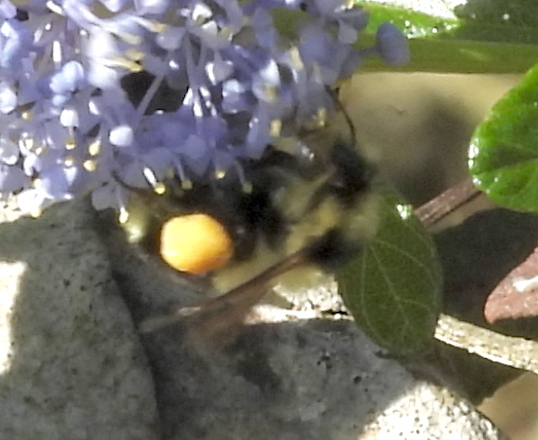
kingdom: Animalia
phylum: Arthropoda
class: Insecta
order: Hymenoptera
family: Apidae
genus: Bombus
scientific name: Bombus melanopygus
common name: Black tail bumble bee
